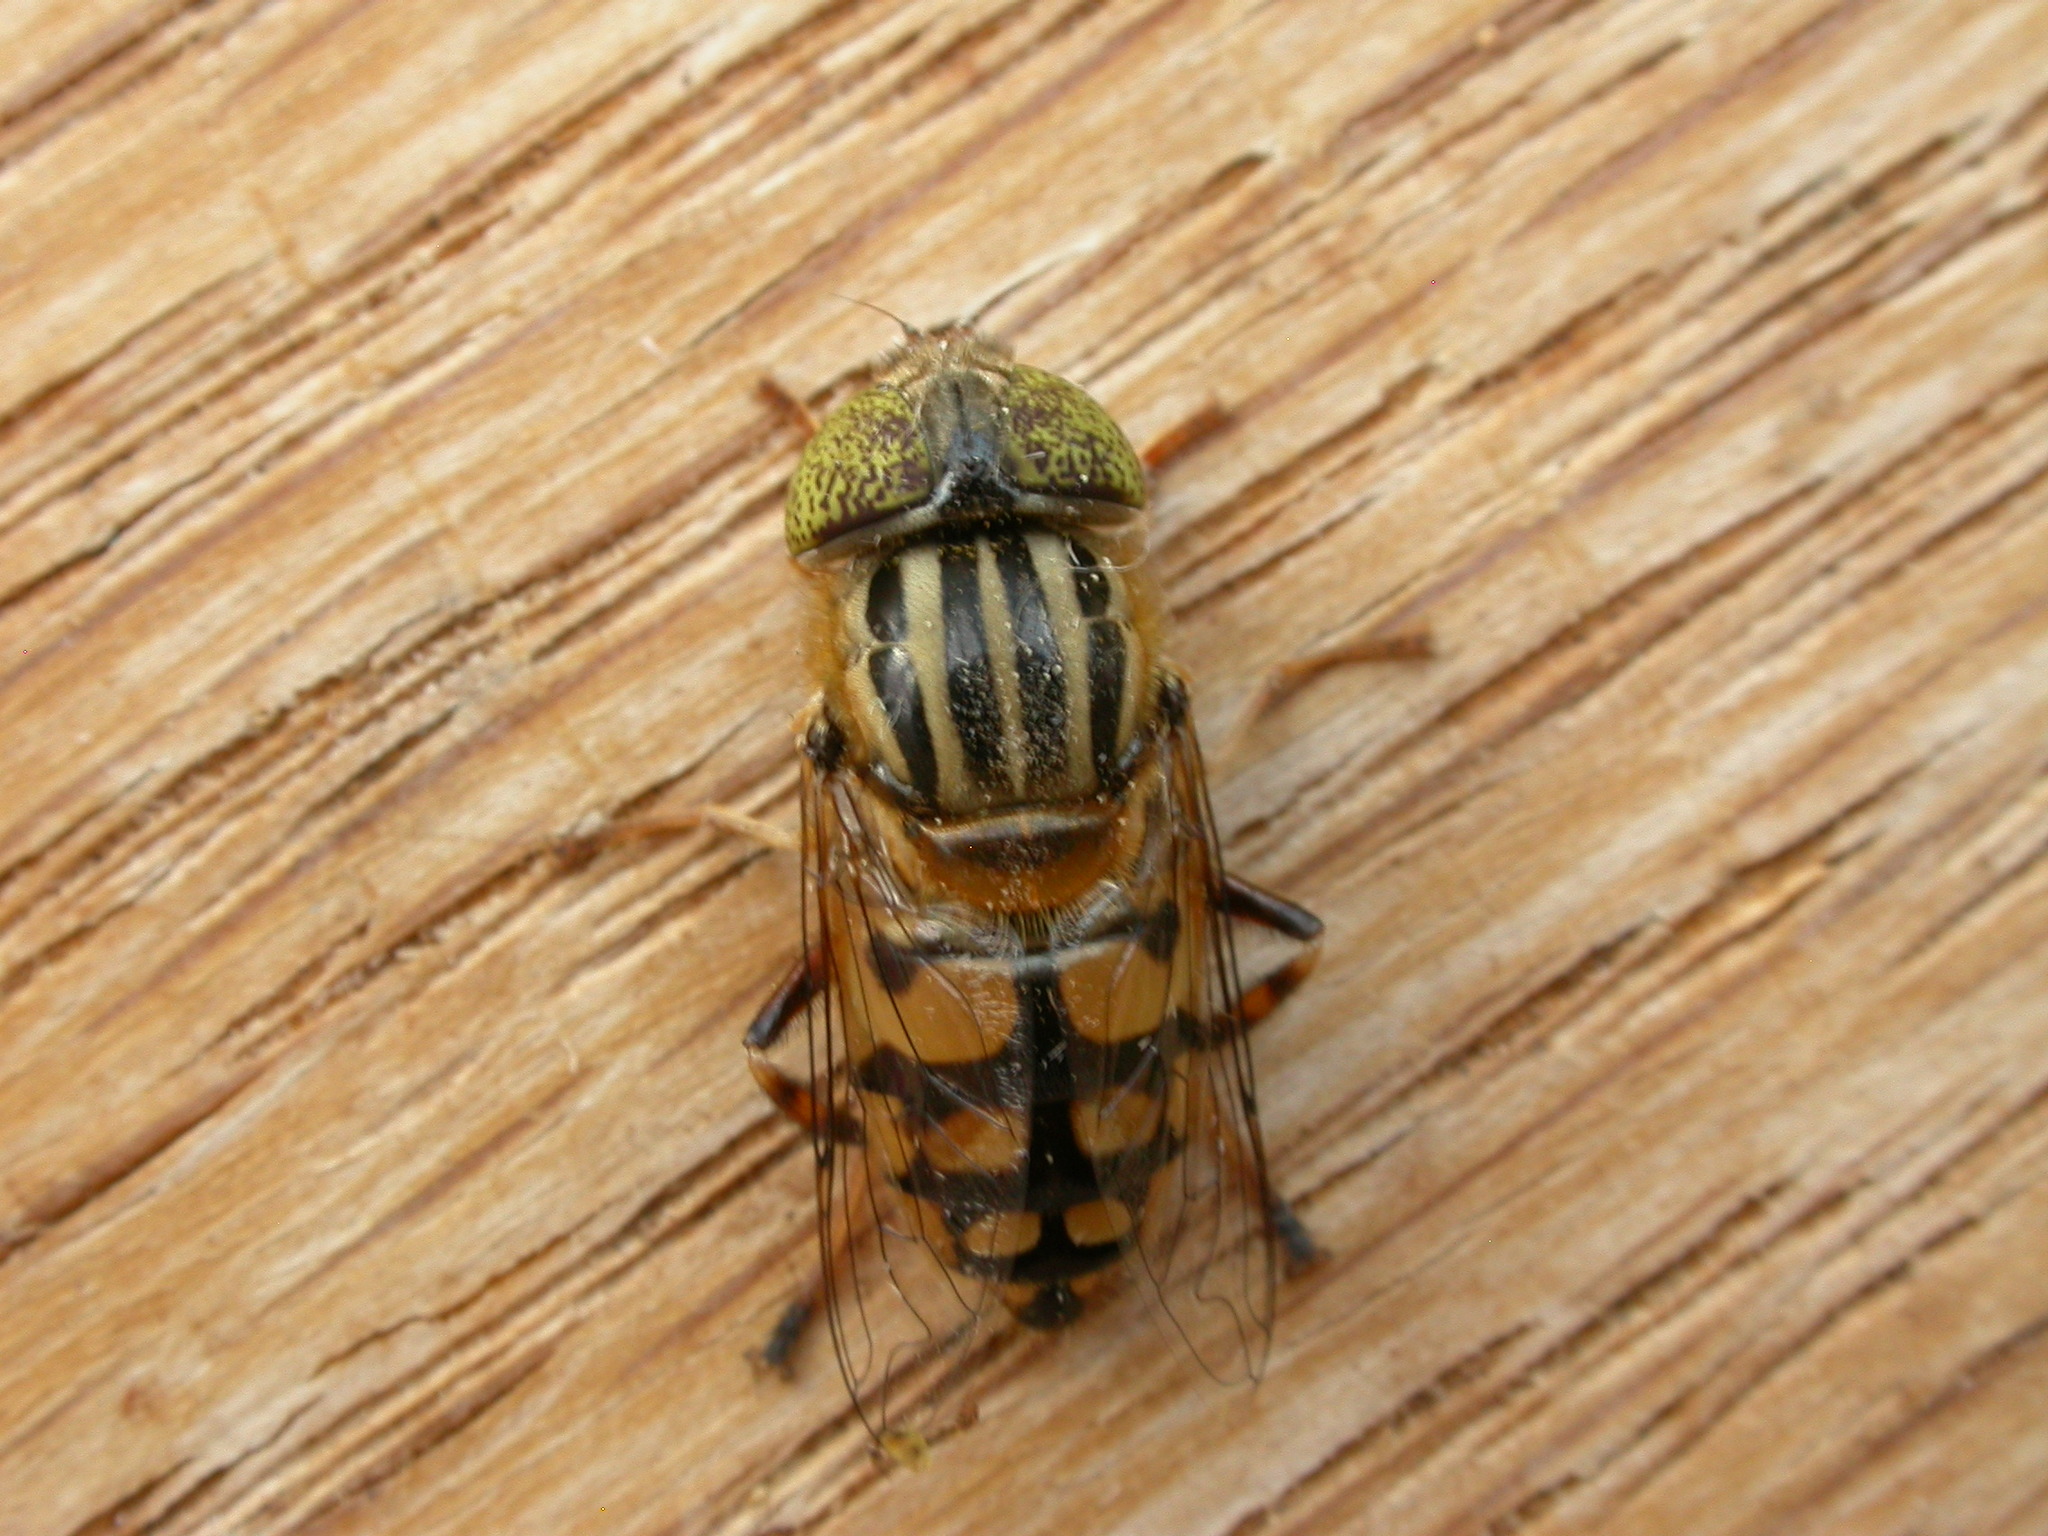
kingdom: Animalia
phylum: Arthropoda
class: Insecta
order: Diptera
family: Syrphidae
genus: Eristalinus
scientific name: Eristalinus punctulatus
